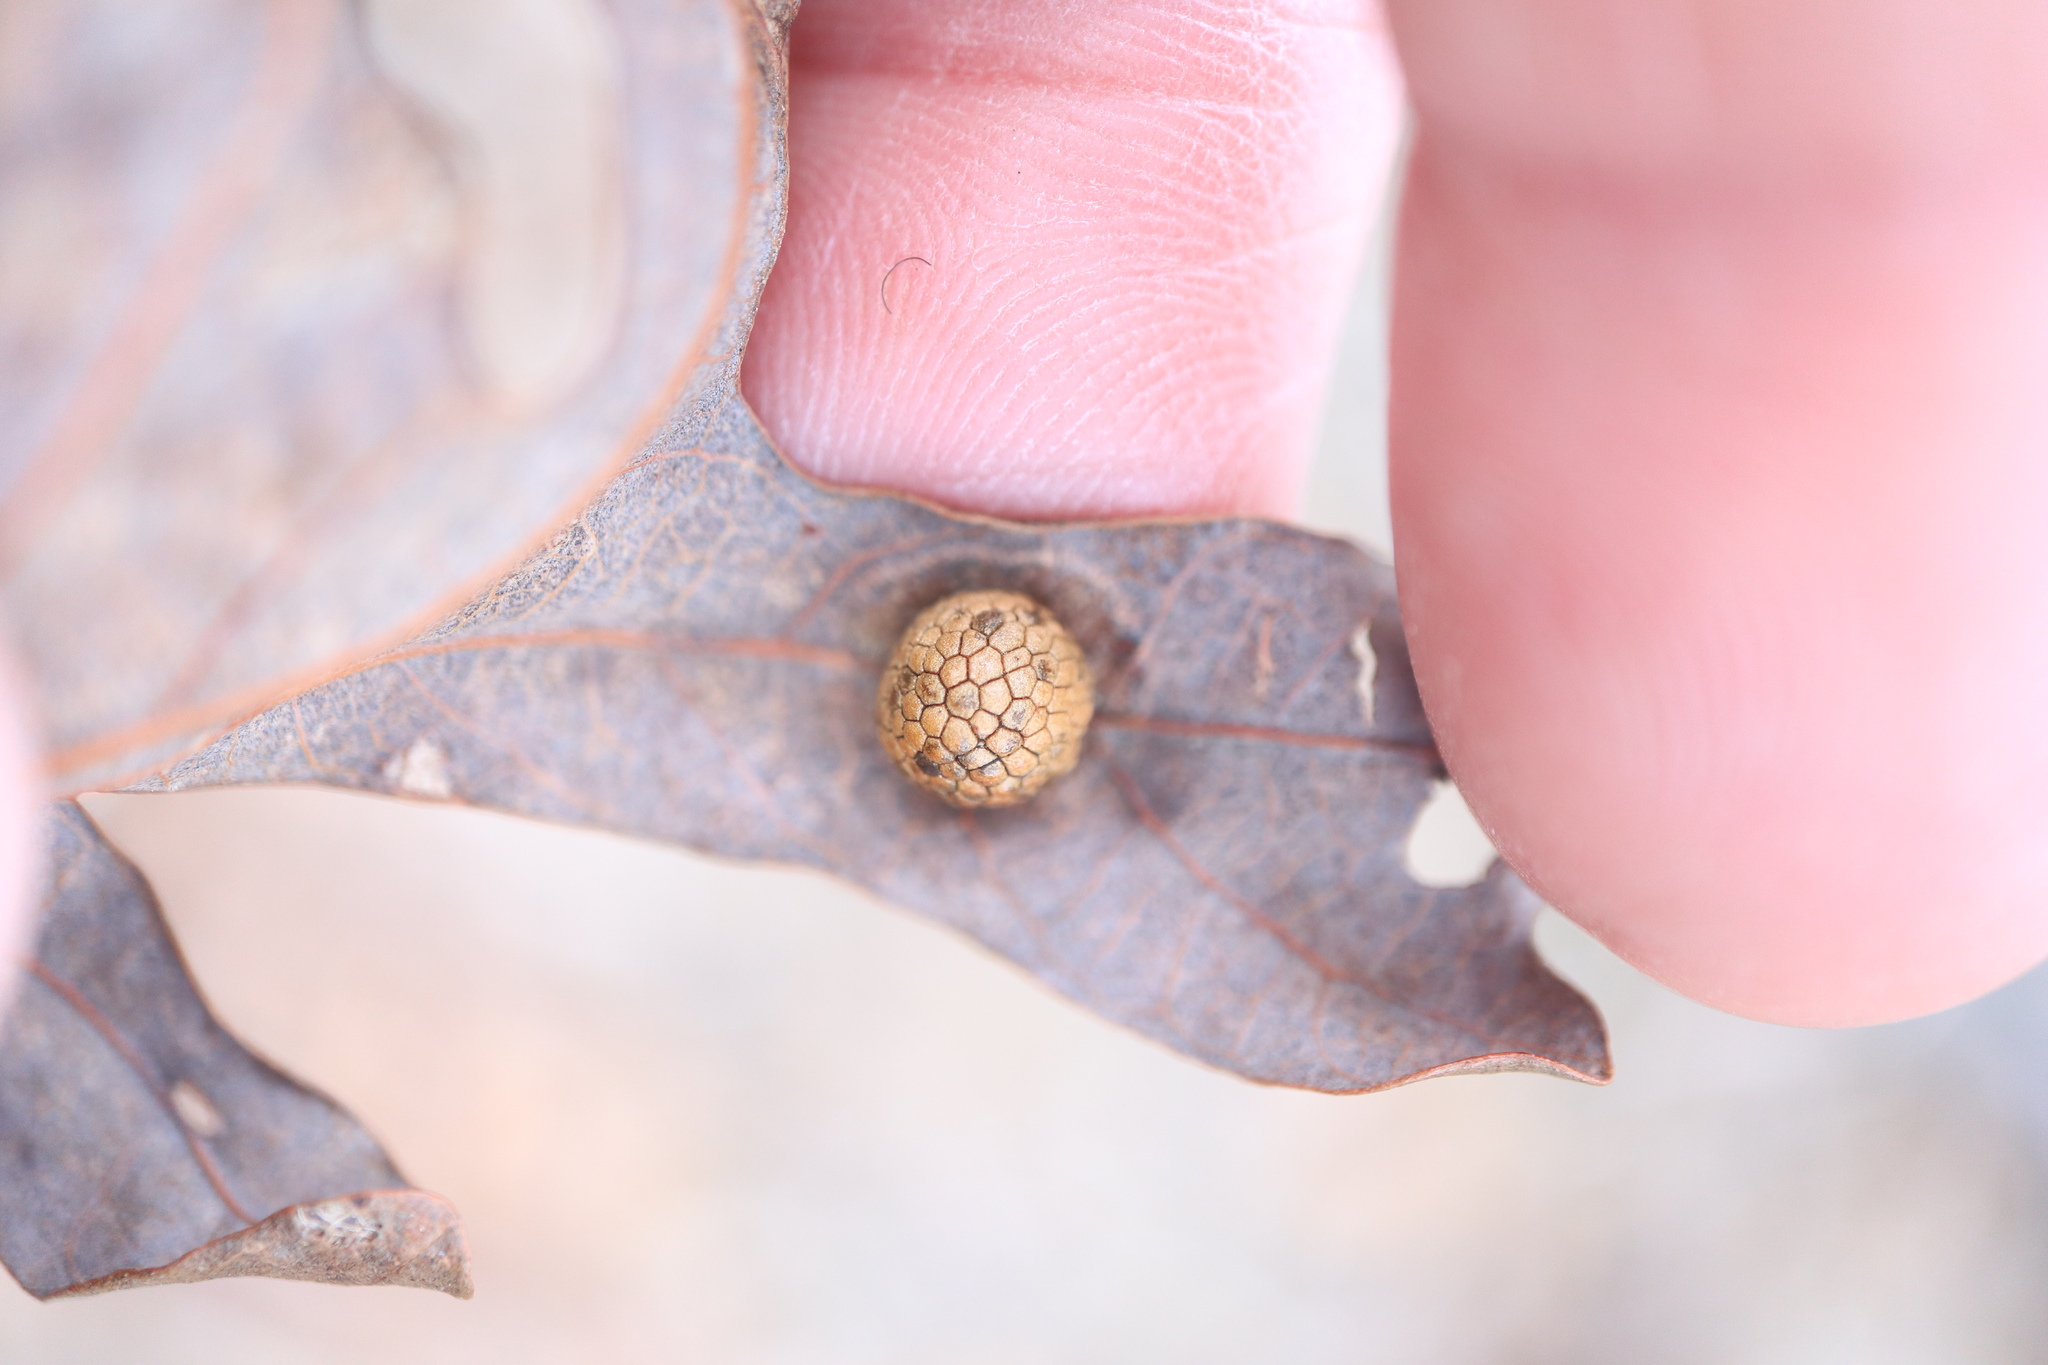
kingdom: Animalia
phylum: Arthropoda
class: Insecta
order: Hymenoptera
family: Cynipidae
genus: Acraspis
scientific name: Acraspis
